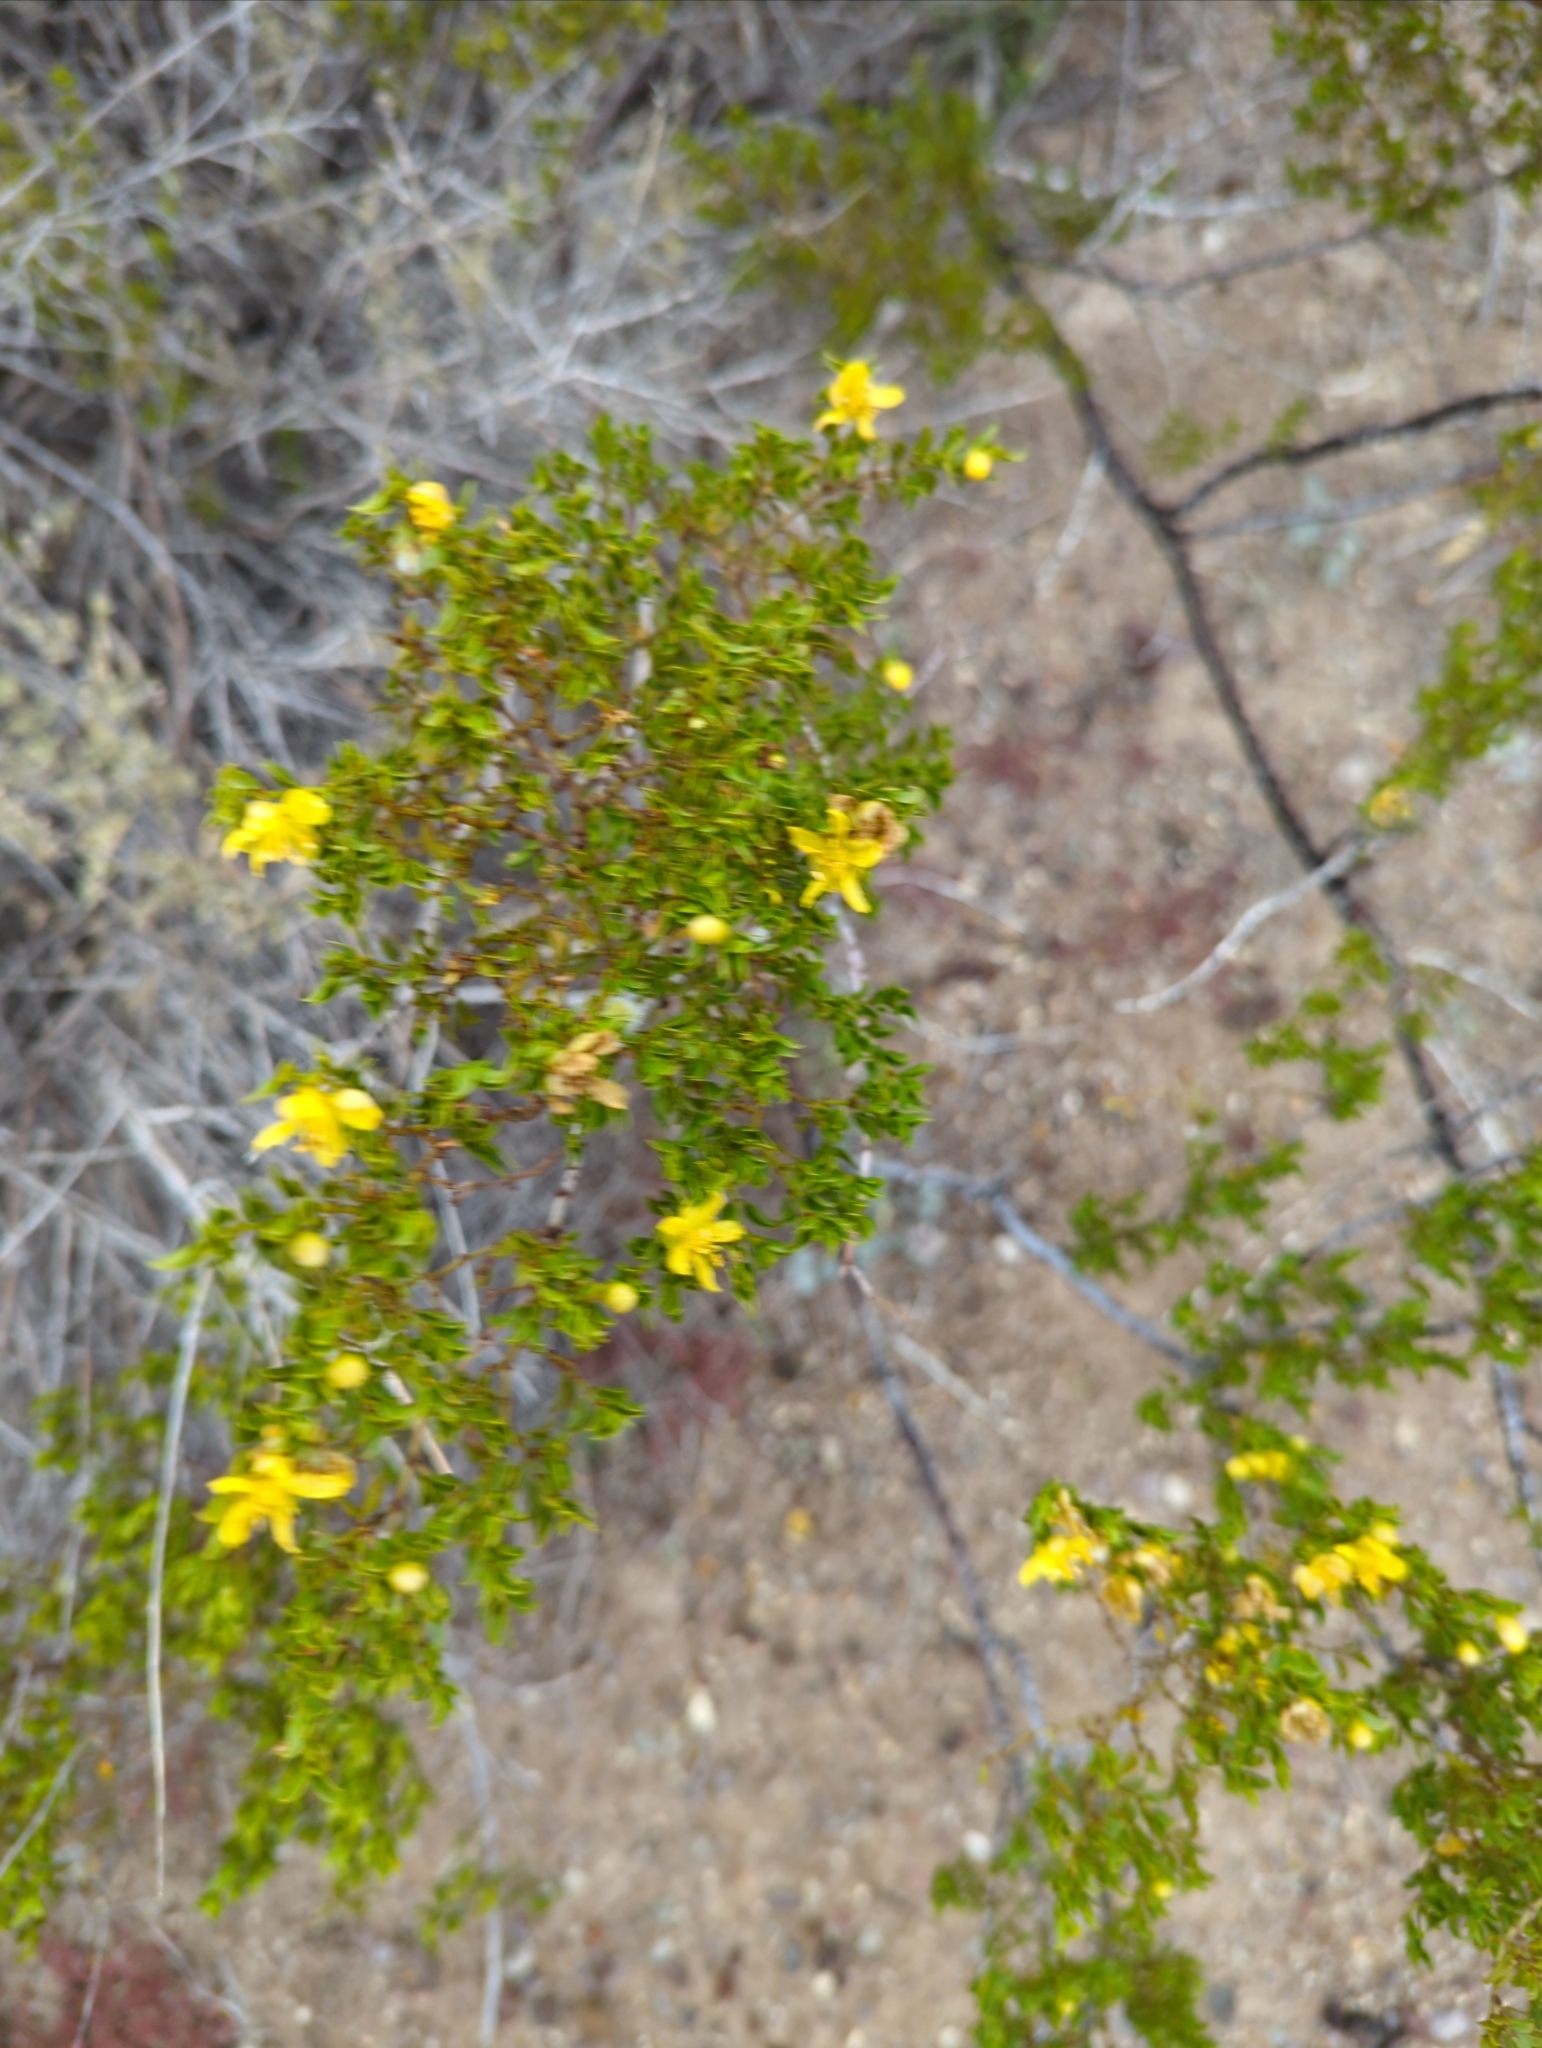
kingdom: Plantae
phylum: Tracheophyta
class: Magnoliopsida
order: Zygophyllales
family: Zygophyllaceae
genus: Larrea
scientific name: Larrea tridentata
